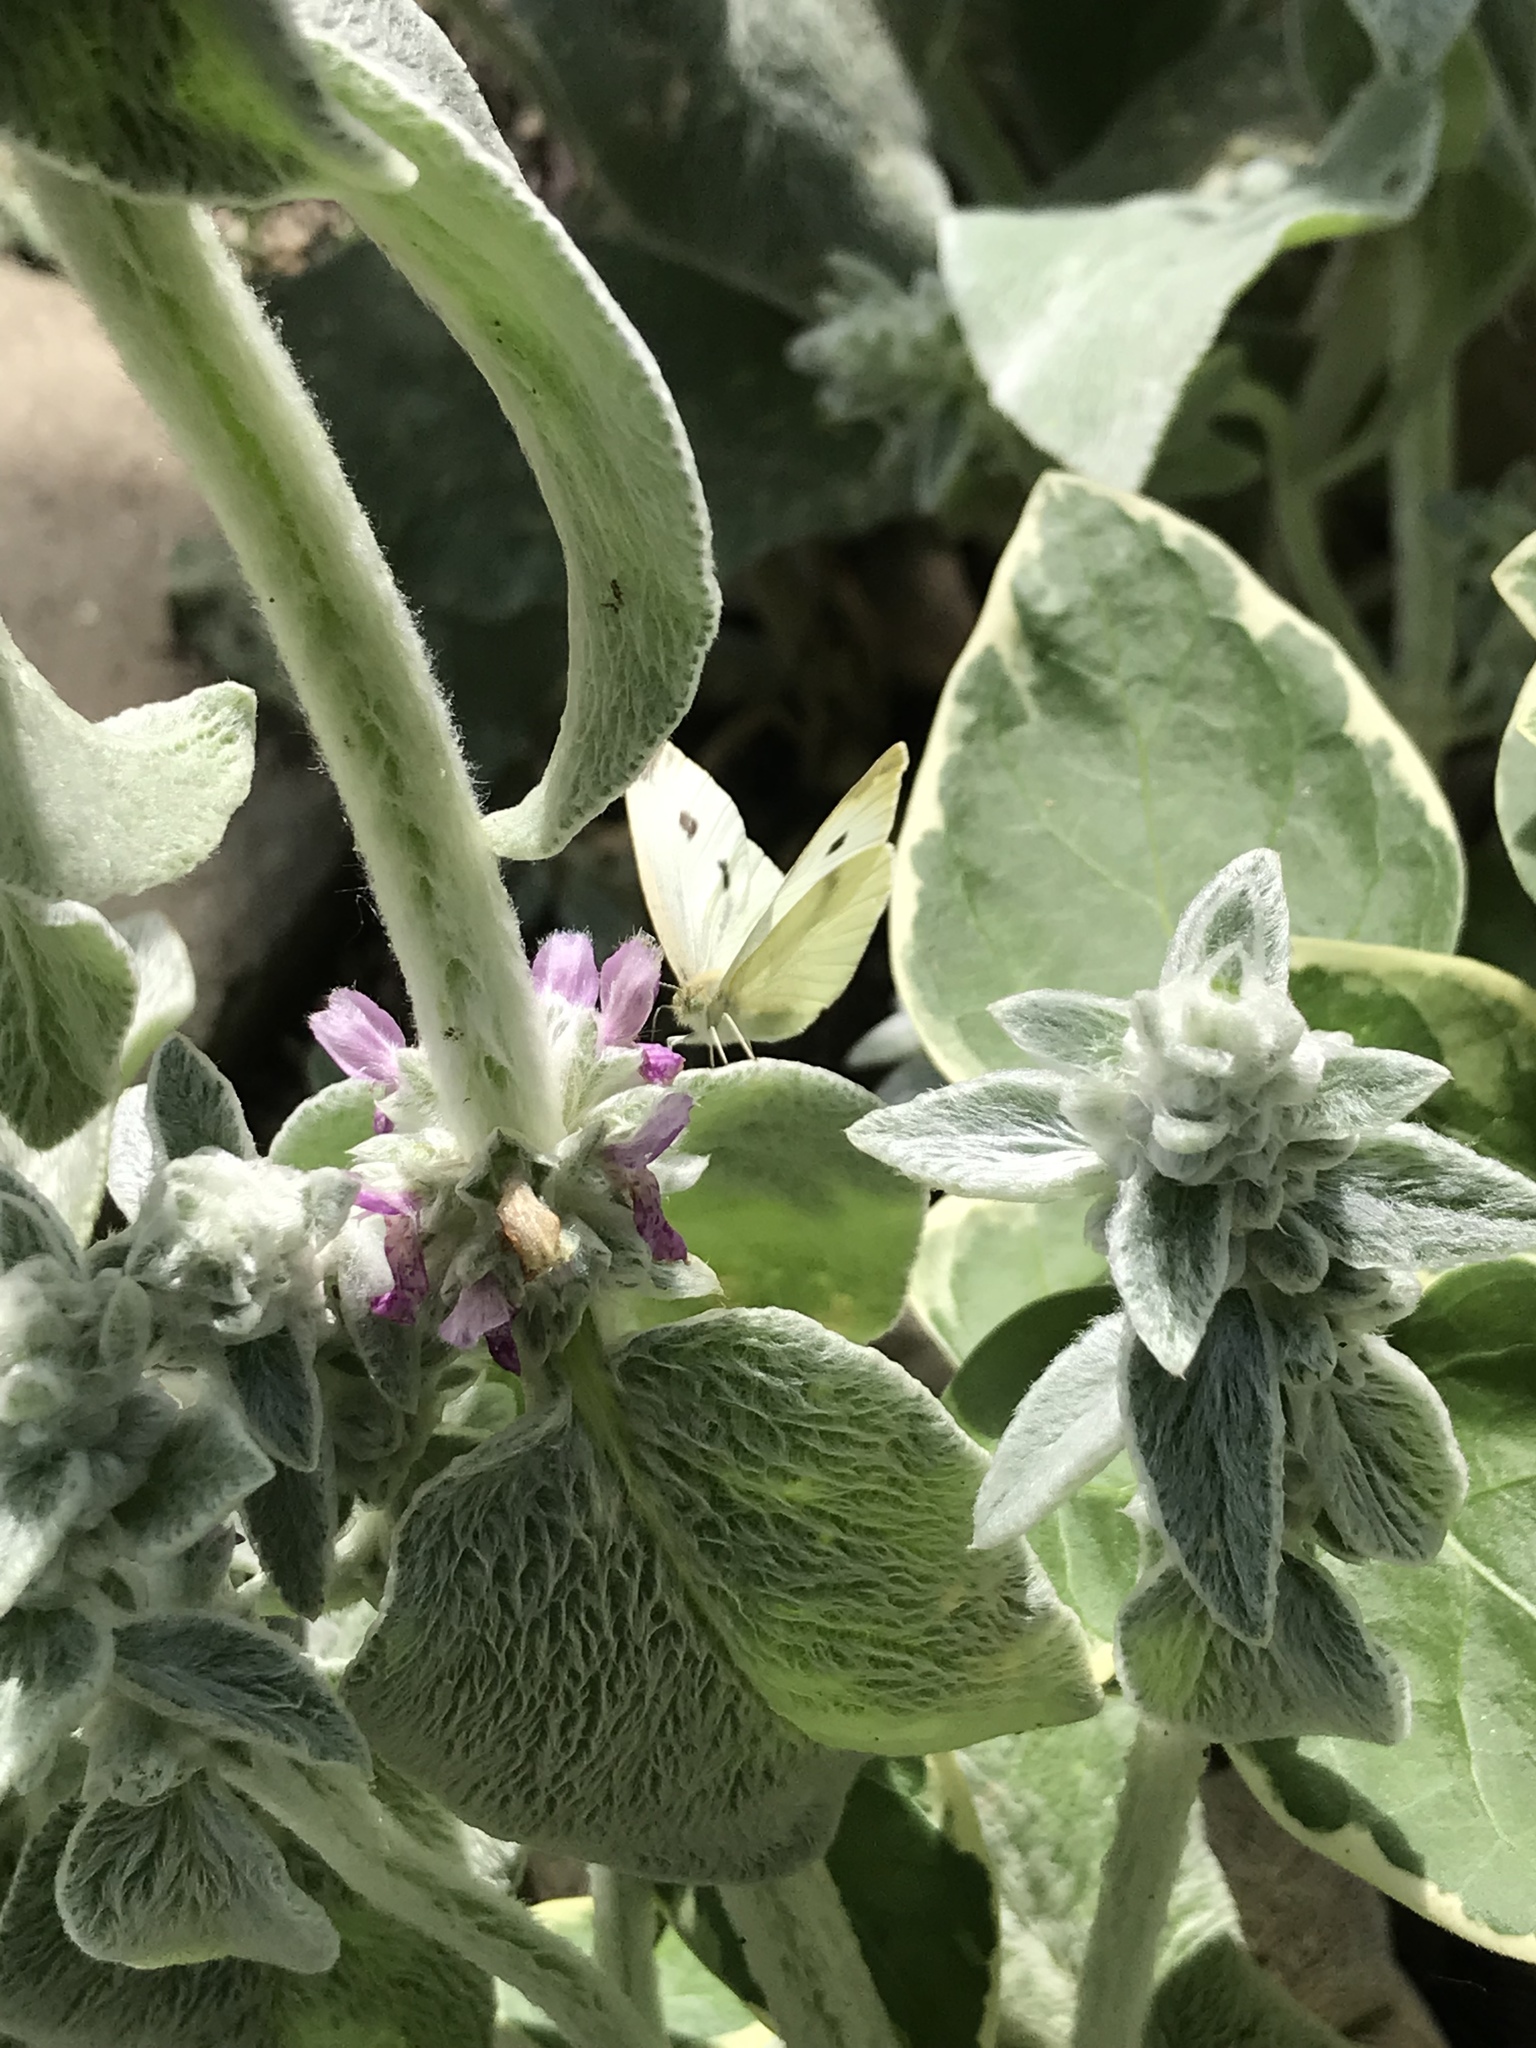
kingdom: Animalia
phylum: Arthropoda
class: Insecta
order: Lepidoptera
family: Pieridae
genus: Pieris
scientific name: Pieris rapae
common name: Small white
